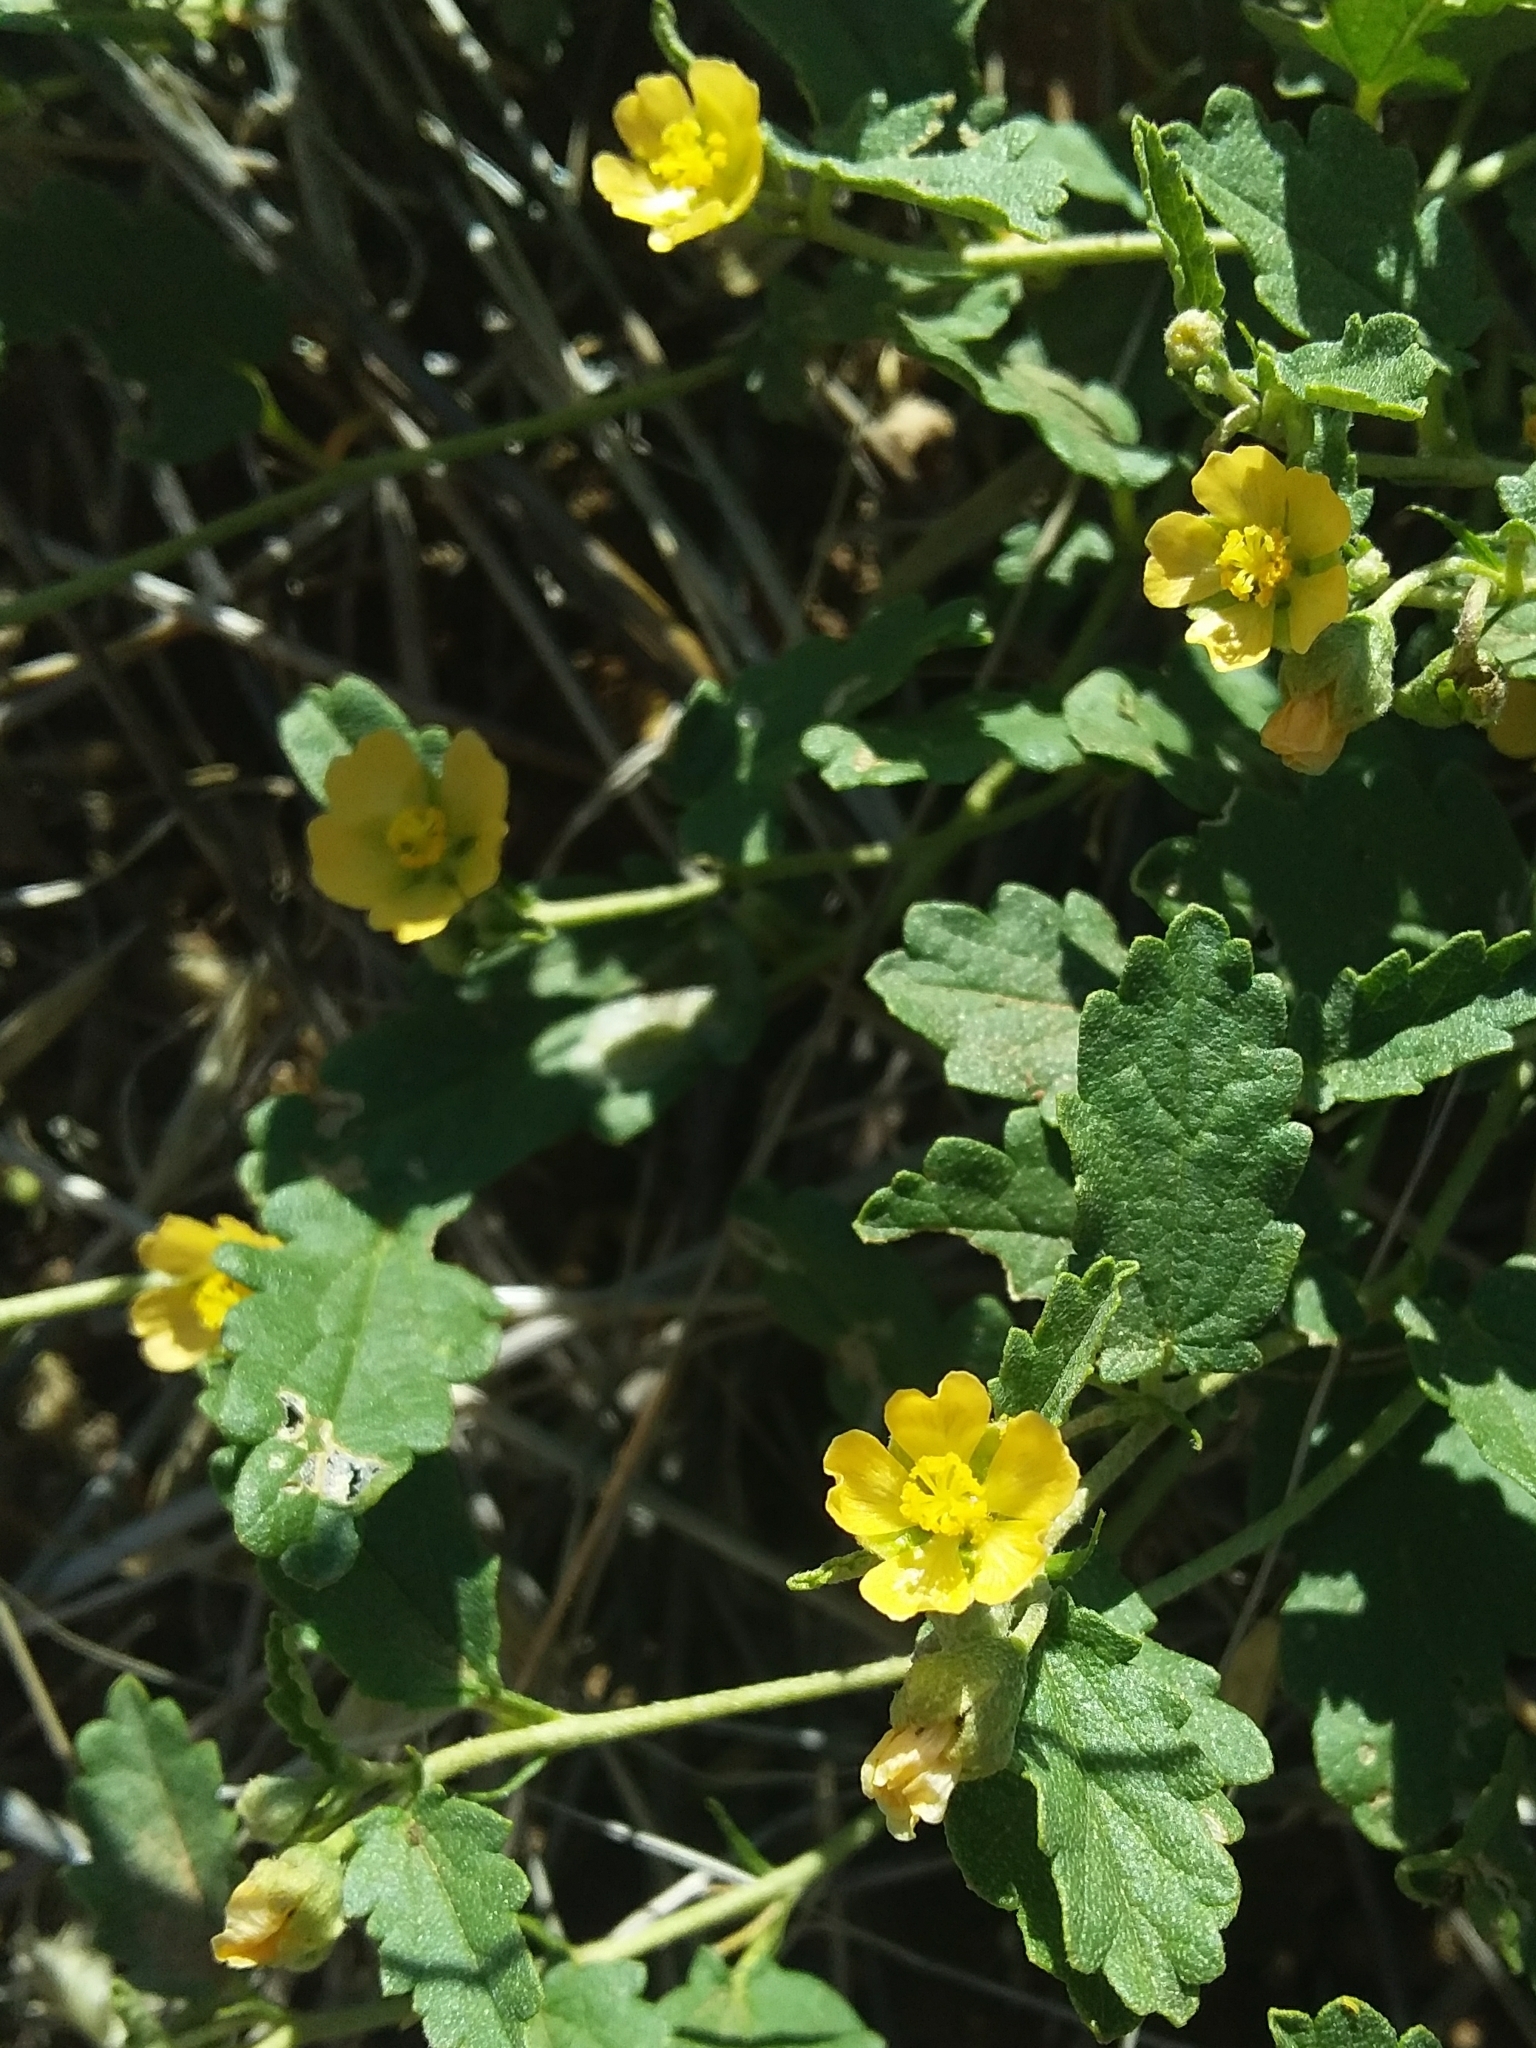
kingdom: Plantae
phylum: Tracheophyta
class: Magnoliopsida
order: Malvales
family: Malvaceae
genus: Sida
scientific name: Sida corrugata
